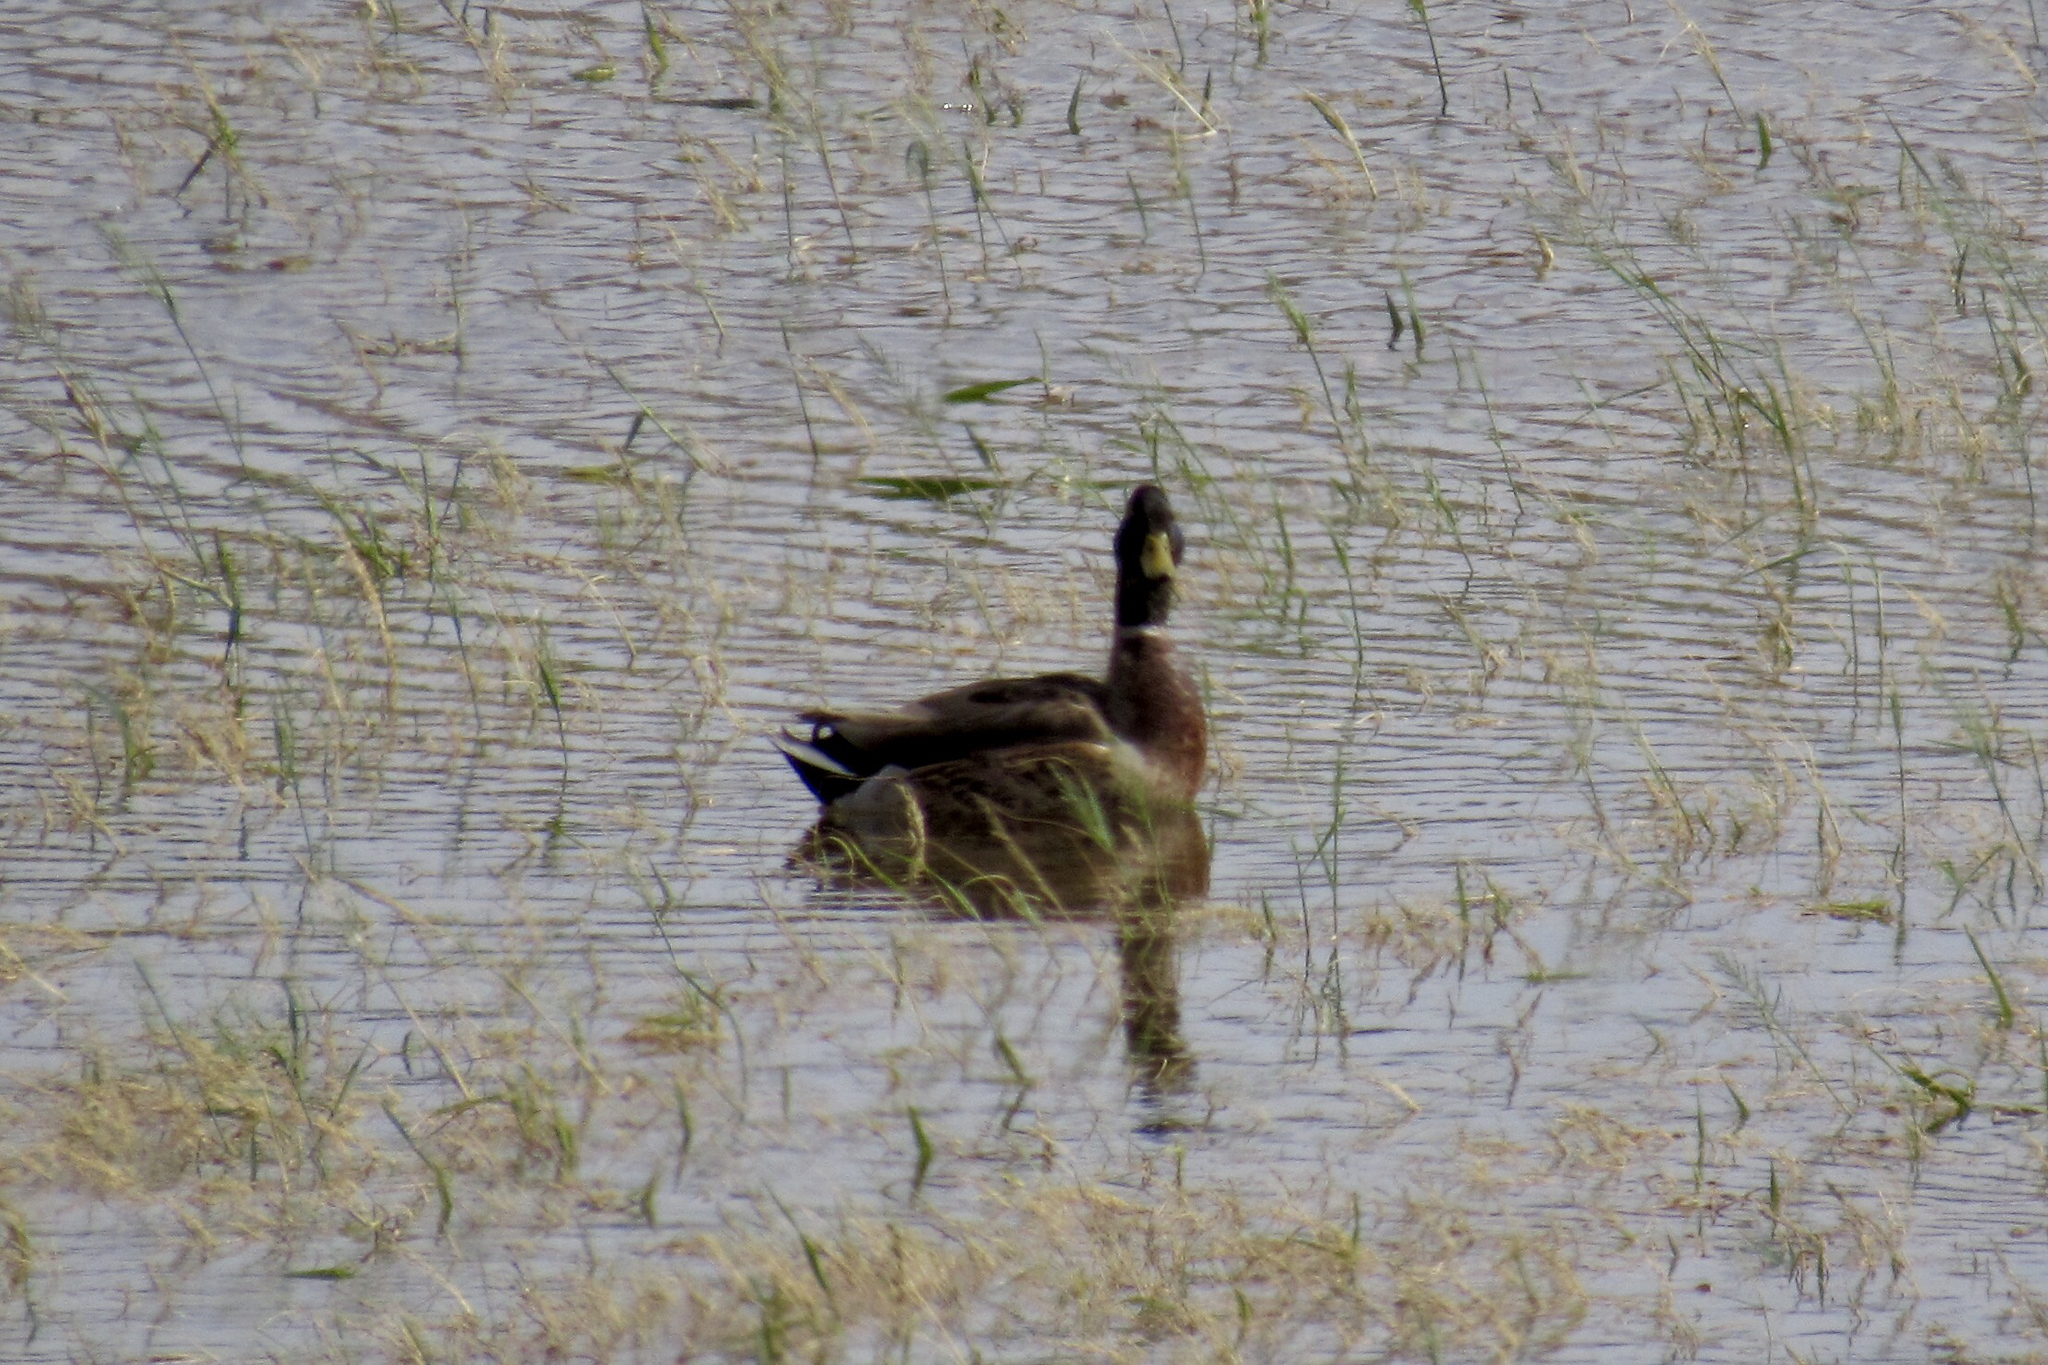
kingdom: Animalia
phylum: Chordata
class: Aves
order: Anseriformes
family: Anatidae
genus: Anas
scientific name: Anas platyrhynchos
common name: Mallard
